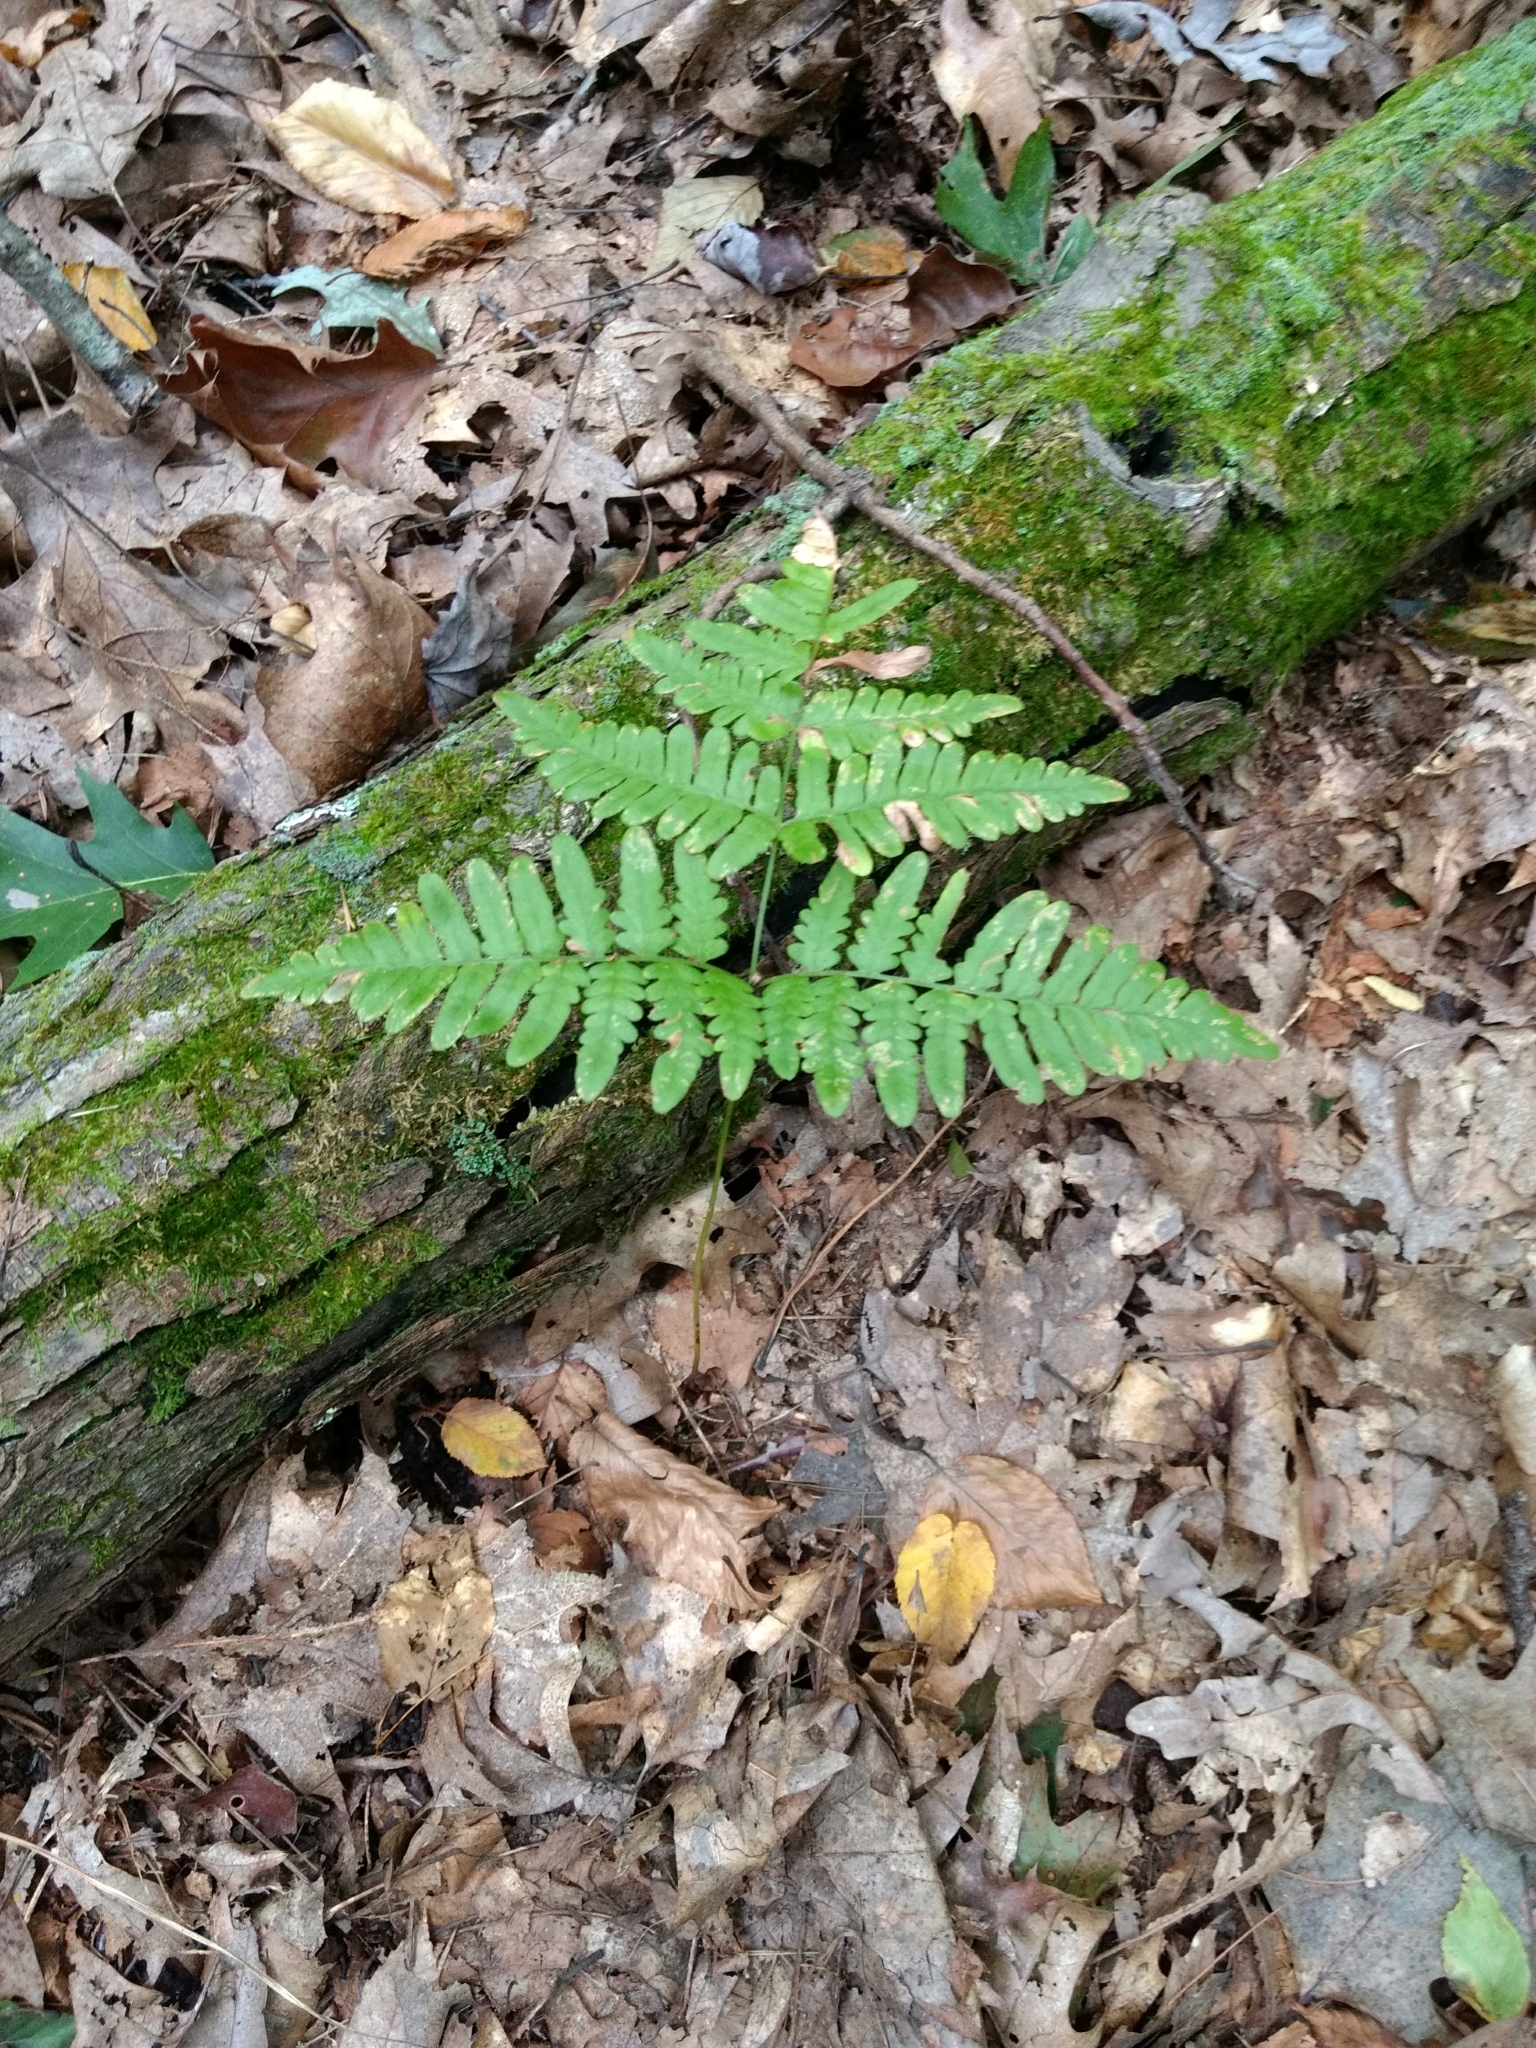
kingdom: Plantae
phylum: Tracheophyta
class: Polypodiopsida
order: Polypodiales
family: Dennstaedtiaceae
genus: Pteridium
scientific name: Pteridium aquilinum
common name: Bracken
